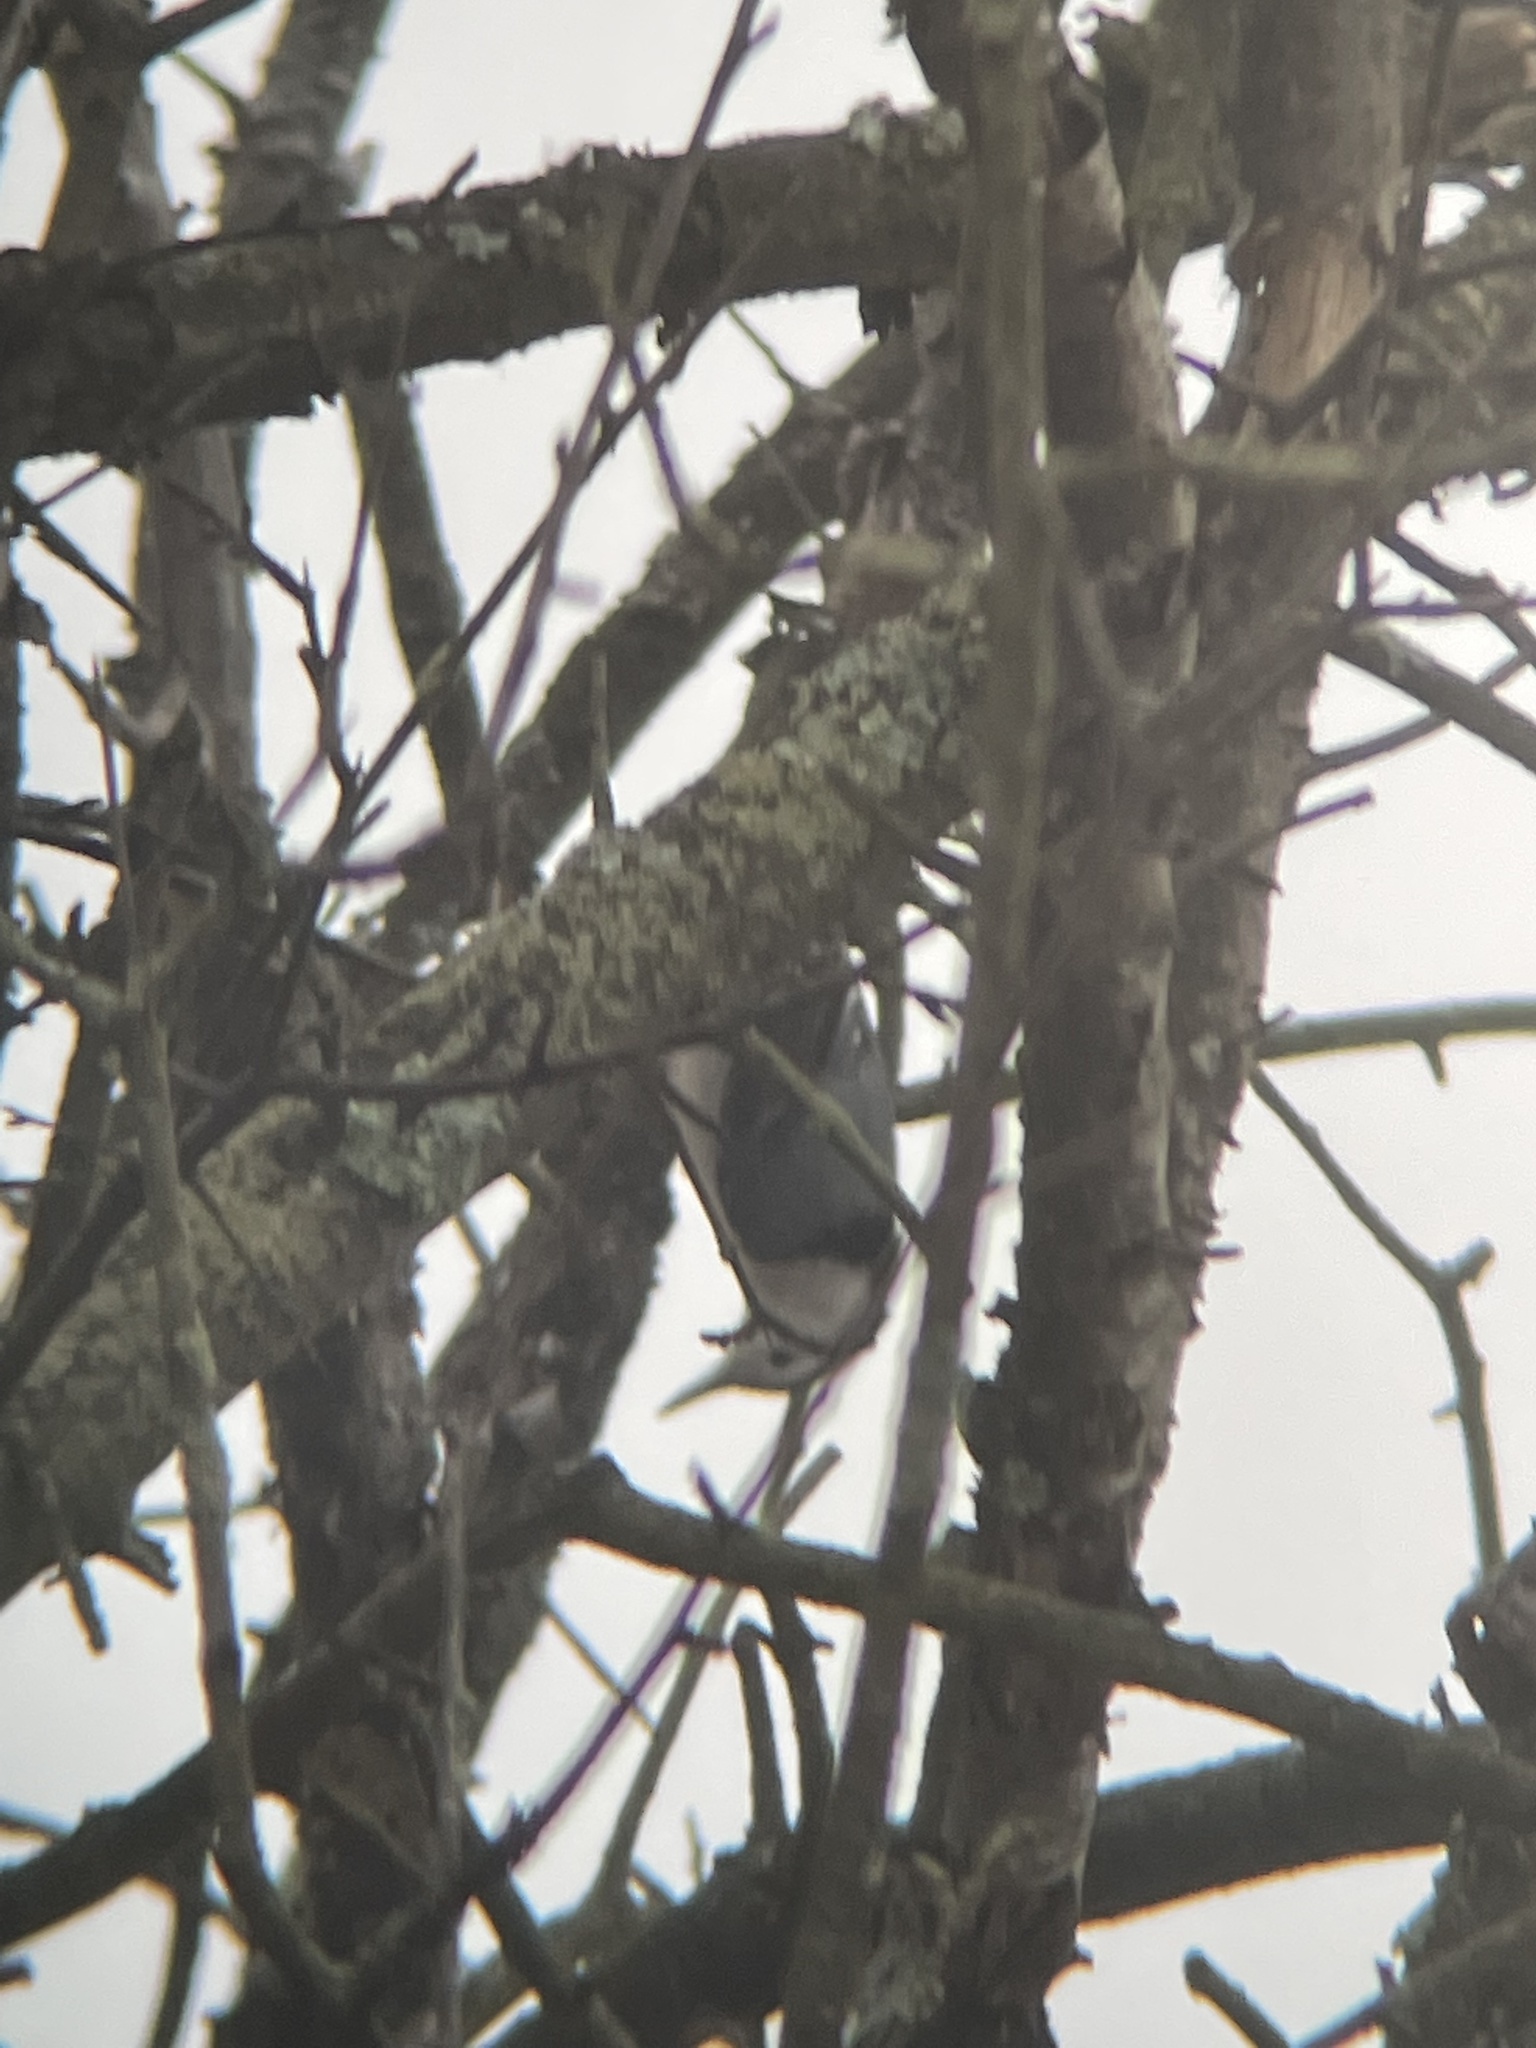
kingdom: Animalia
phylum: Chordata
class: Aves
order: Passeriformes
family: Sittidae
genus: Sitta
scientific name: Sitta carolinensis
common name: White-breasted nuthatch
